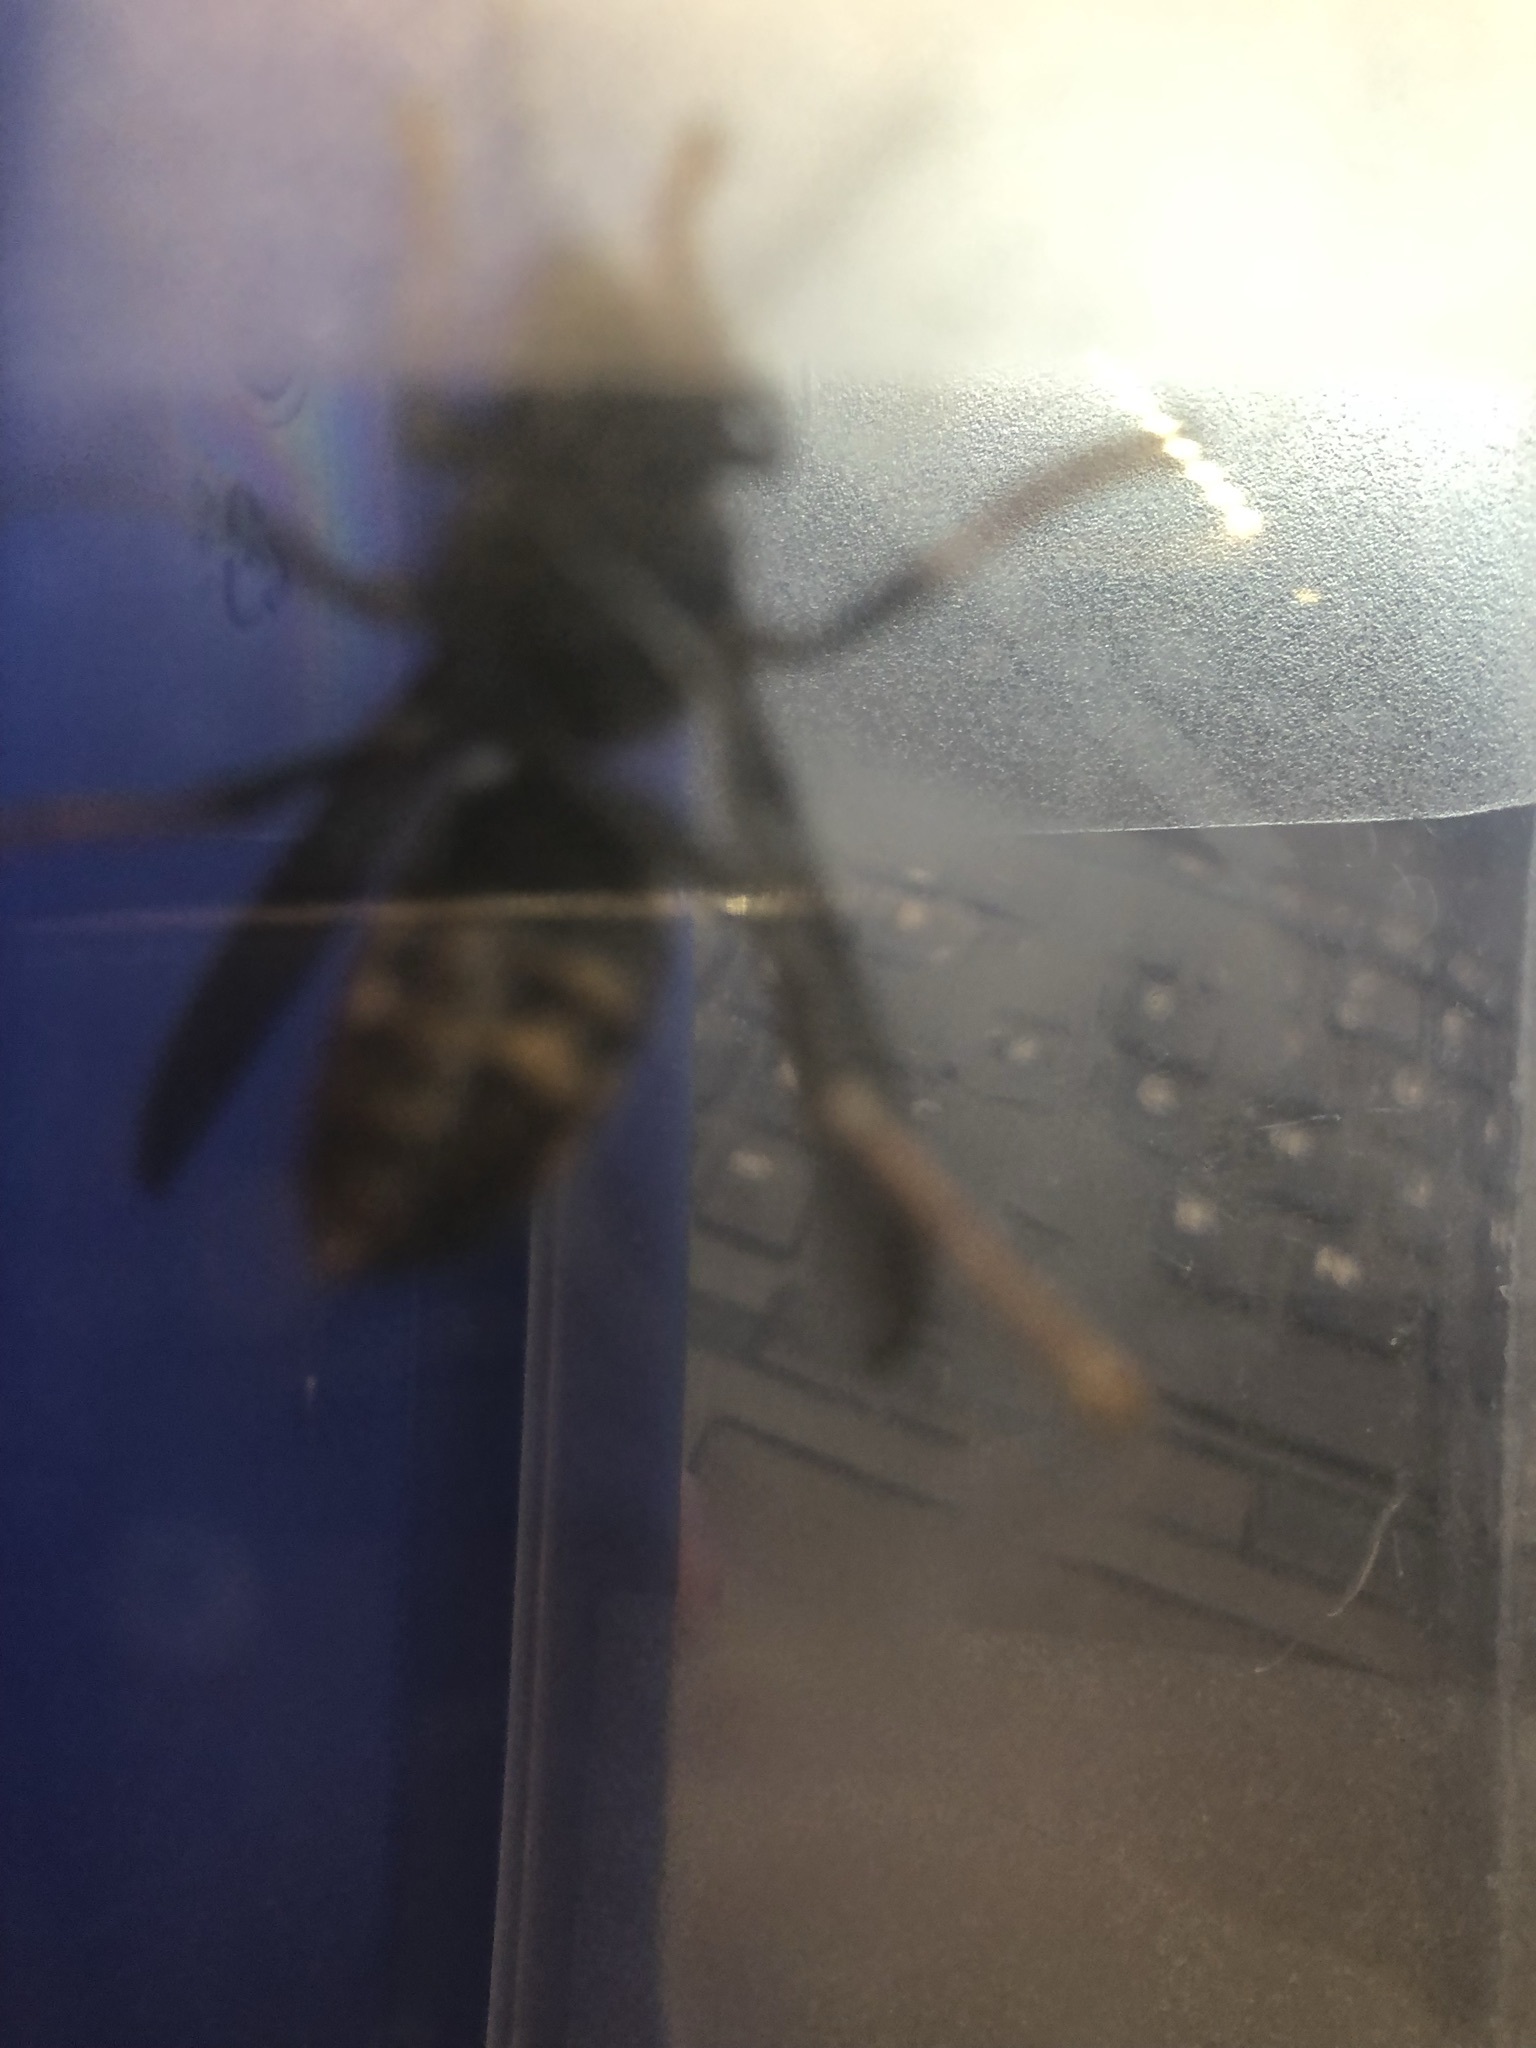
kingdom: Animalia
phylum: Arthropoda
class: Insecta
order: Hymenoptera
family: Vespidae
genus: Vespa
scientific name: Vespa velutina
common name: Asian hornet
